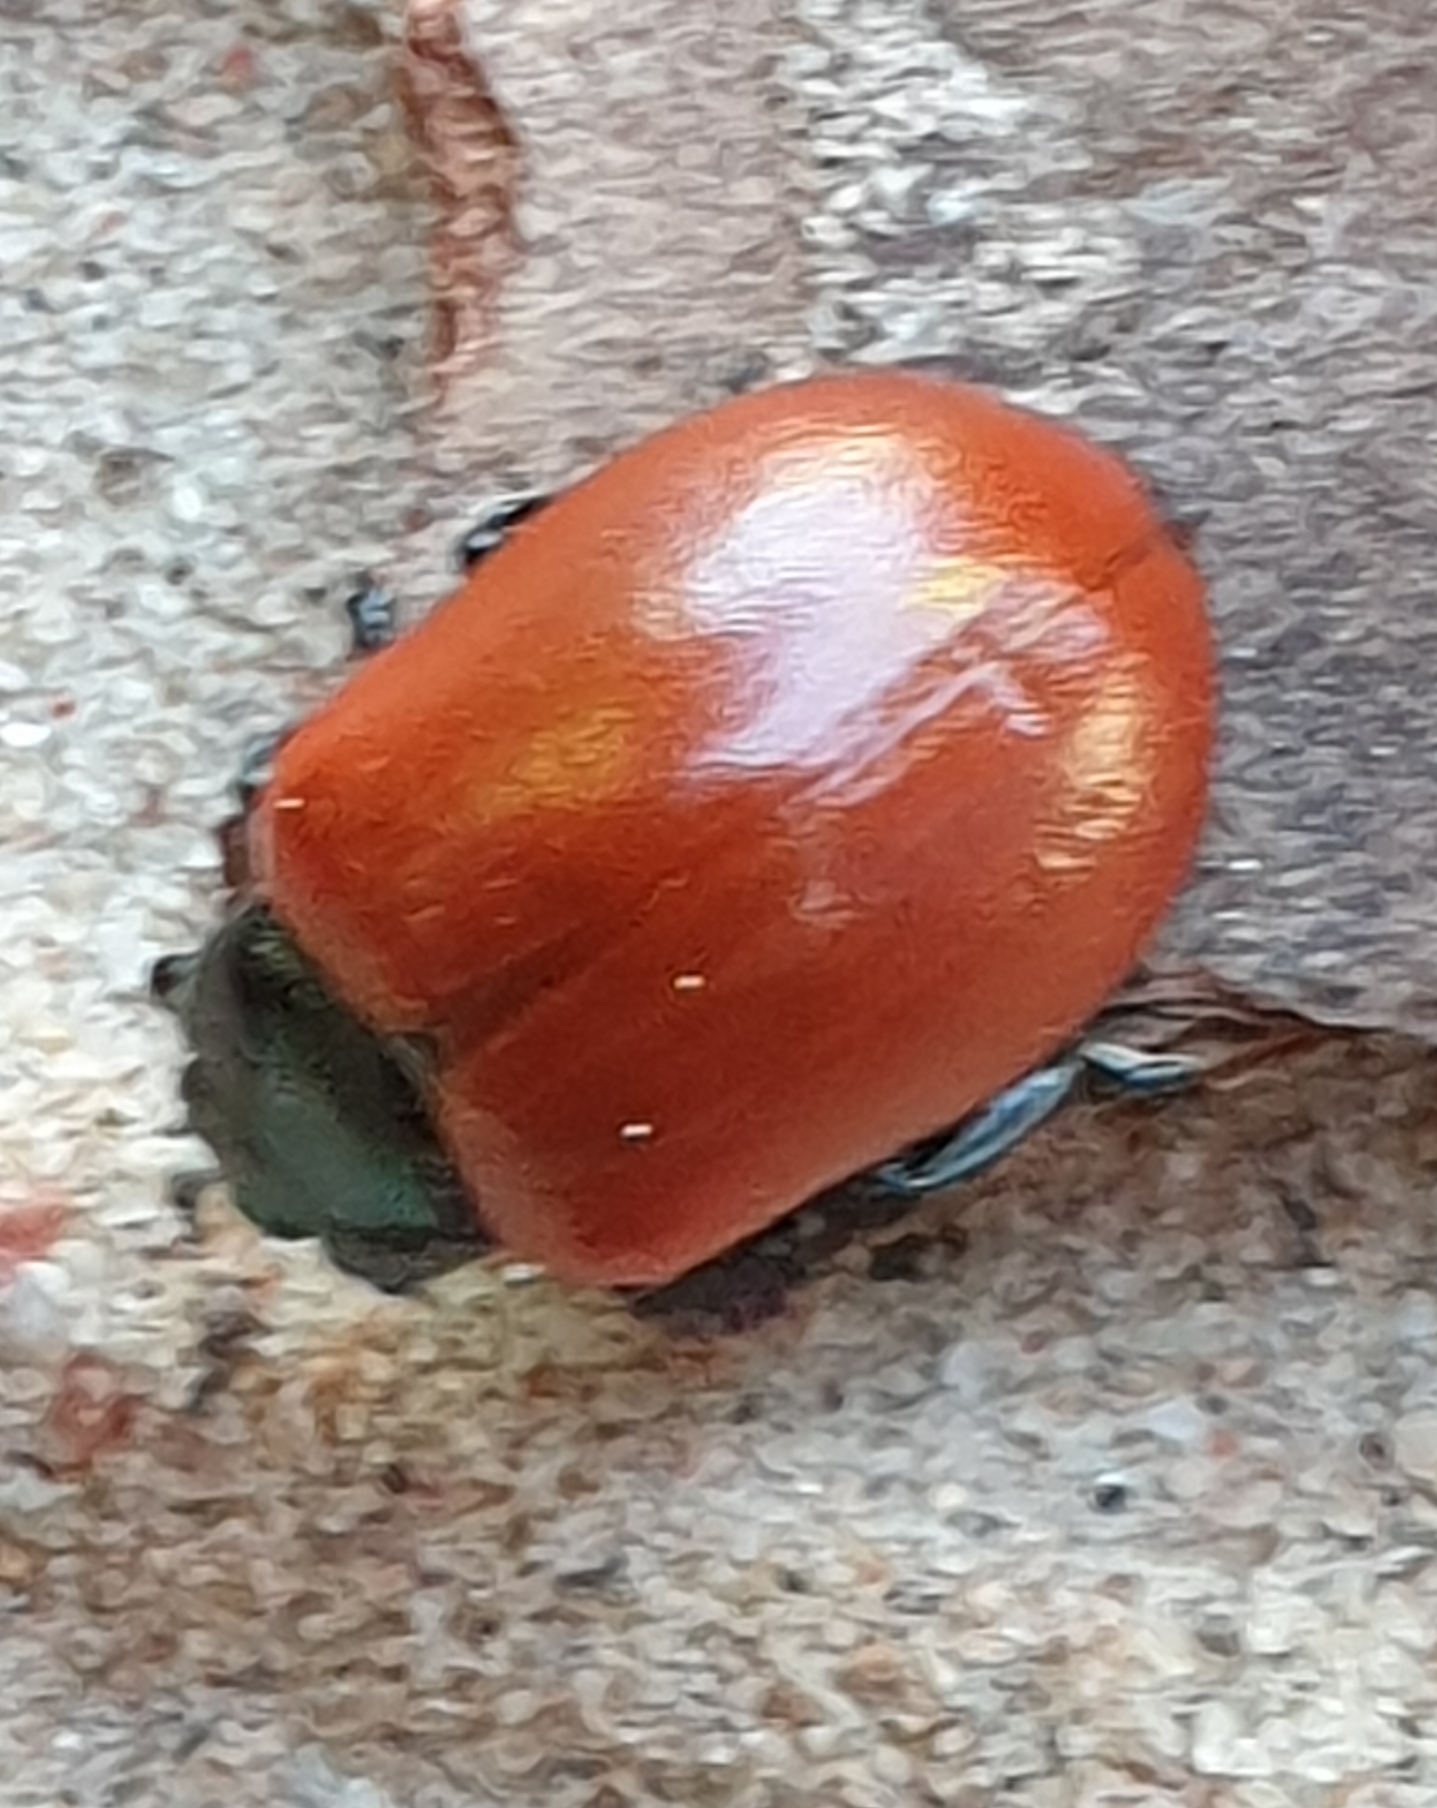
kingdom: Animalia
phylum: Arthropoda
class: Insecta
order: Coleoptera
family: Chrysomelidae
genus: Chrysomela
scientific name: Chrysomela populi
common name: Red poplar leaf beetle
